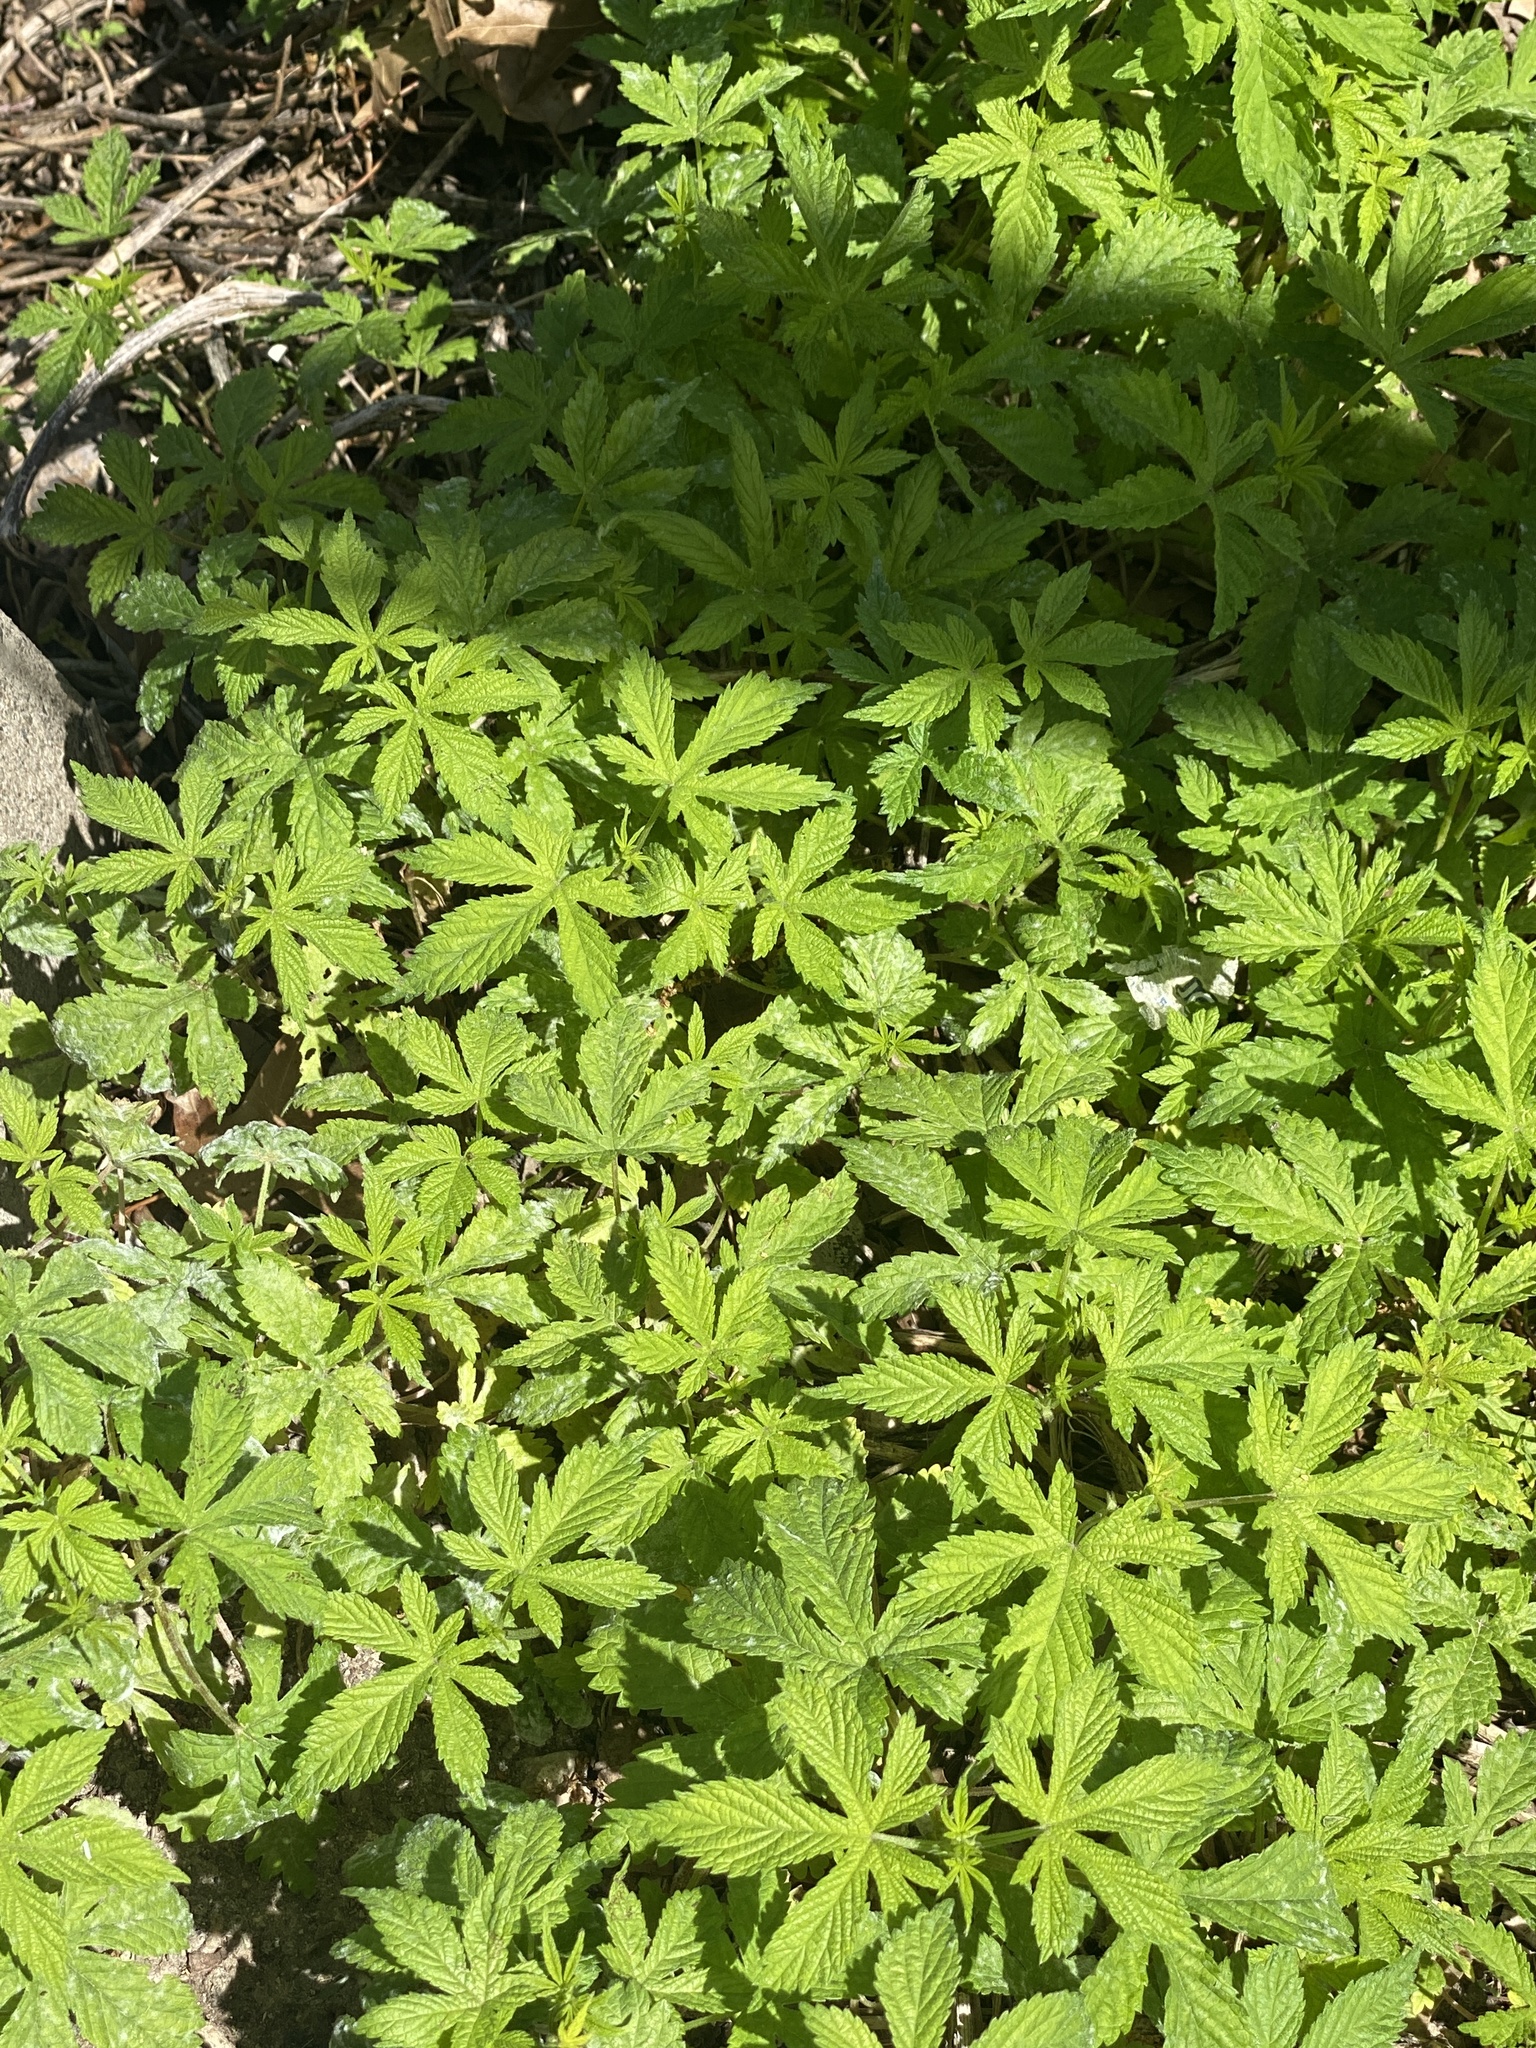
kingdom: Plantae
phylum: Tracheophyta
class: Magnoliopsida
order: Rosales
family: Cannabaceae
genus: Humulus
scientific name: Humulus scandens
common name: Japanese hop
